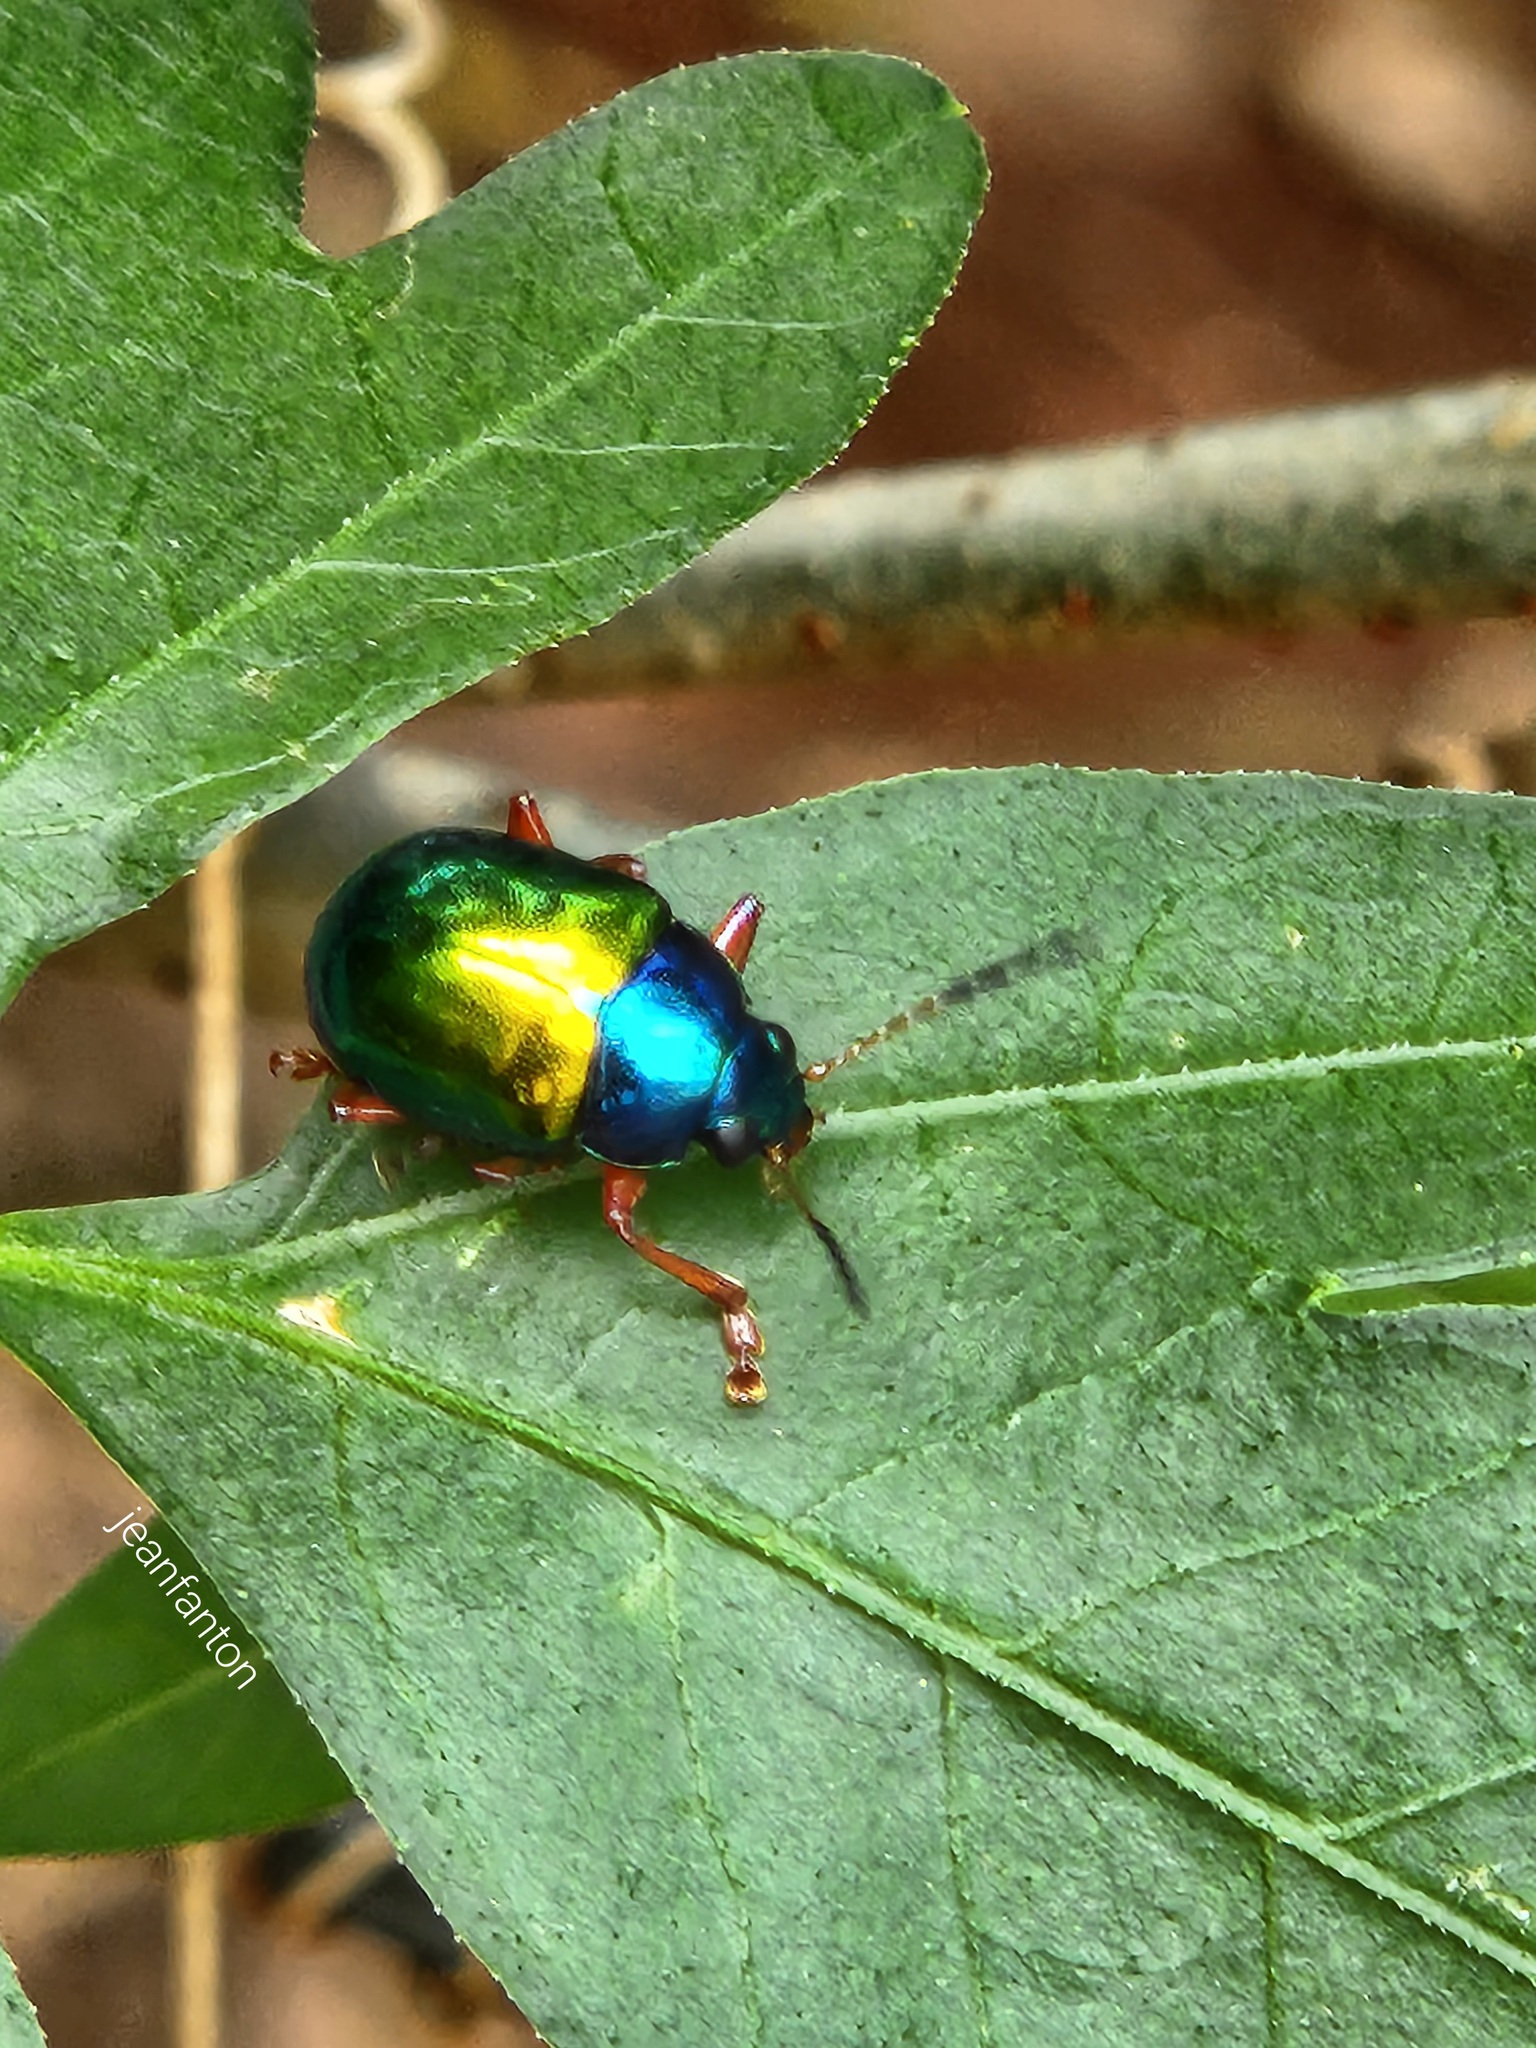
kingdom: Animalia
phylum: Arthropoda
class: Insecta
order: Coleoptera
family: Chrysomelidae
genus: Iphimeis
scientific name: Iphimeis
